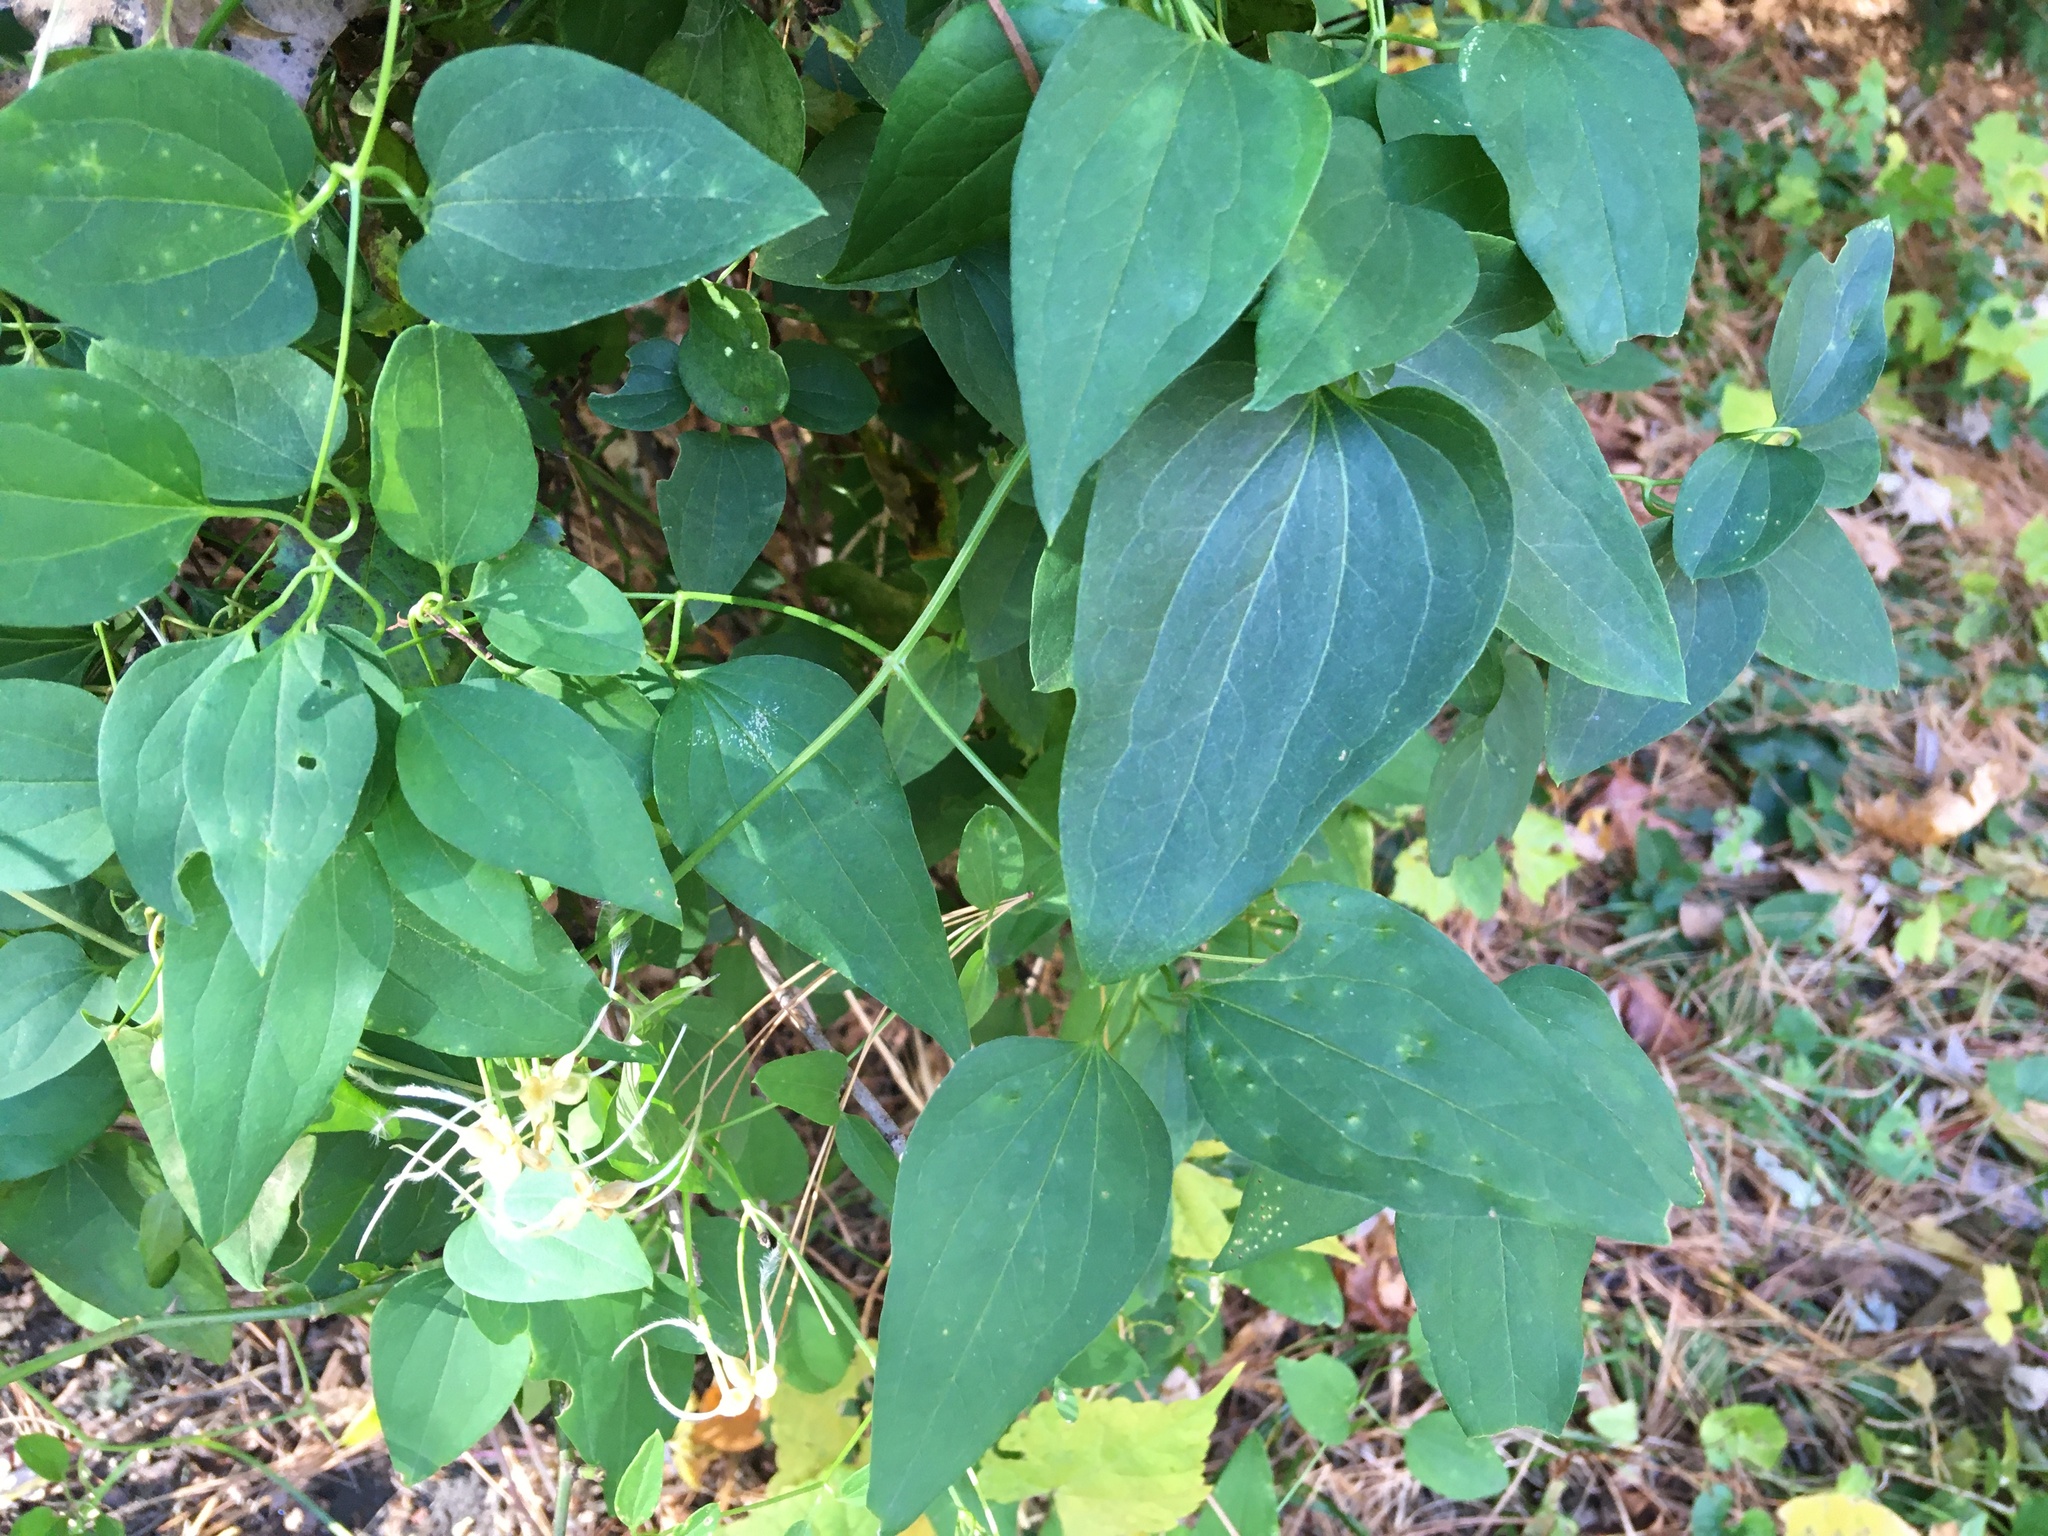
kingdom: Plantae
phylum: Tracheophyta
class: Magnoliopsida
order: Ranunculales
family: Ranunculaceae
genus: Clematis
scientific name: Clematis terniflora
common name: Sweet autumn clematis
